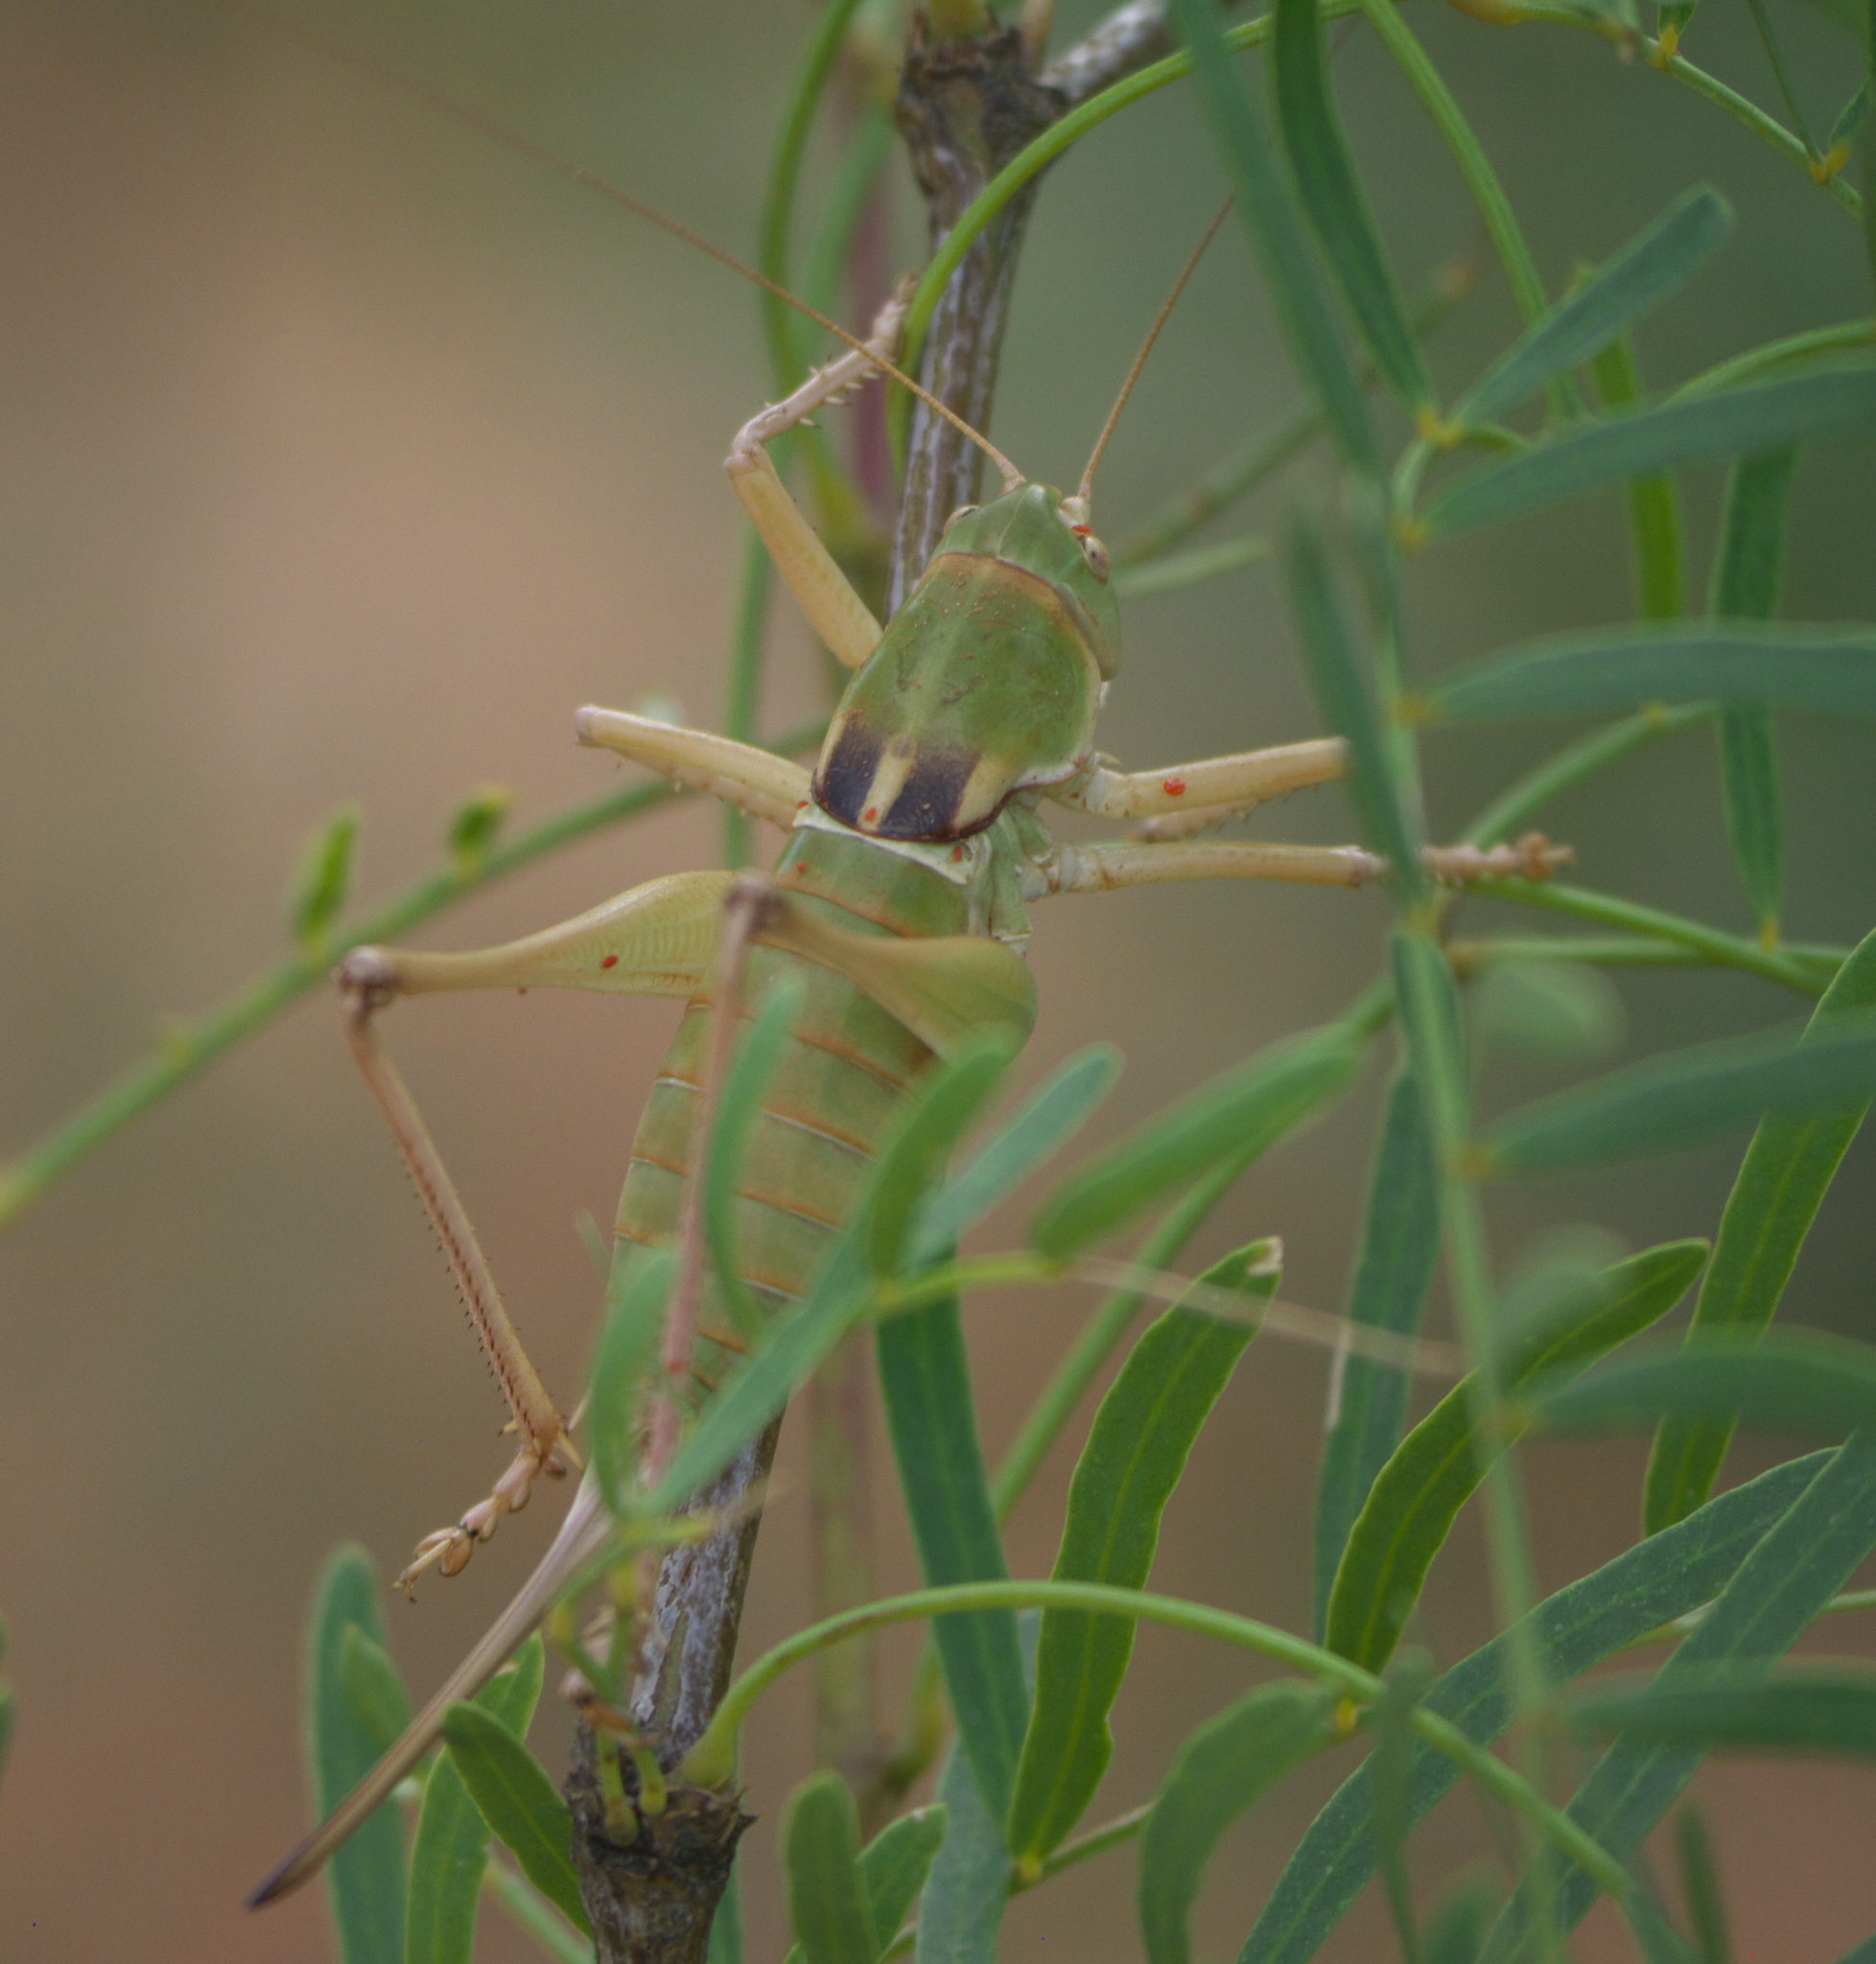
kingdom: Animalia
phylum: Arthropoda
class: Insecta
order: Orthoptera
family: Tettigoniidae
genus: Pediodectes
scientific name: Pediodectes haldemanii
